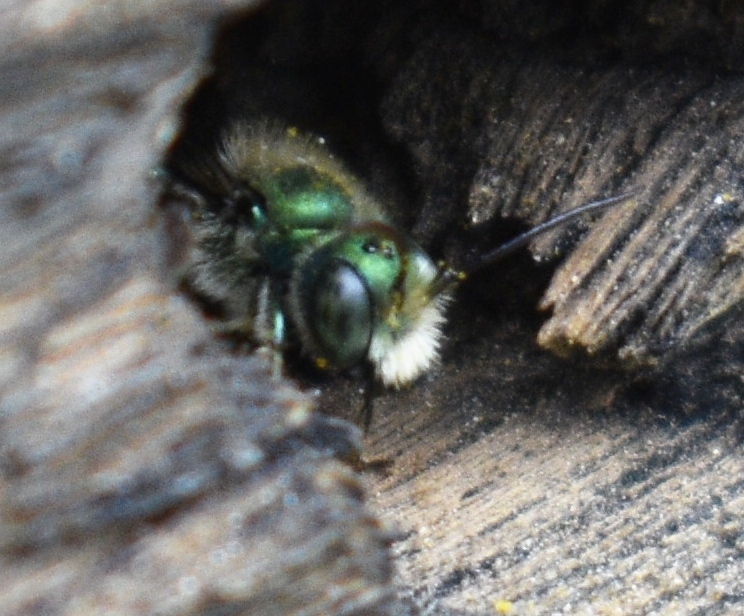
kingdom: Animalia
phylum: Arthropoda
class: Insecta
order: Hymenoptera
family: Megachilidae
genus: Osmia
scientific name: Osmia ribifloris
